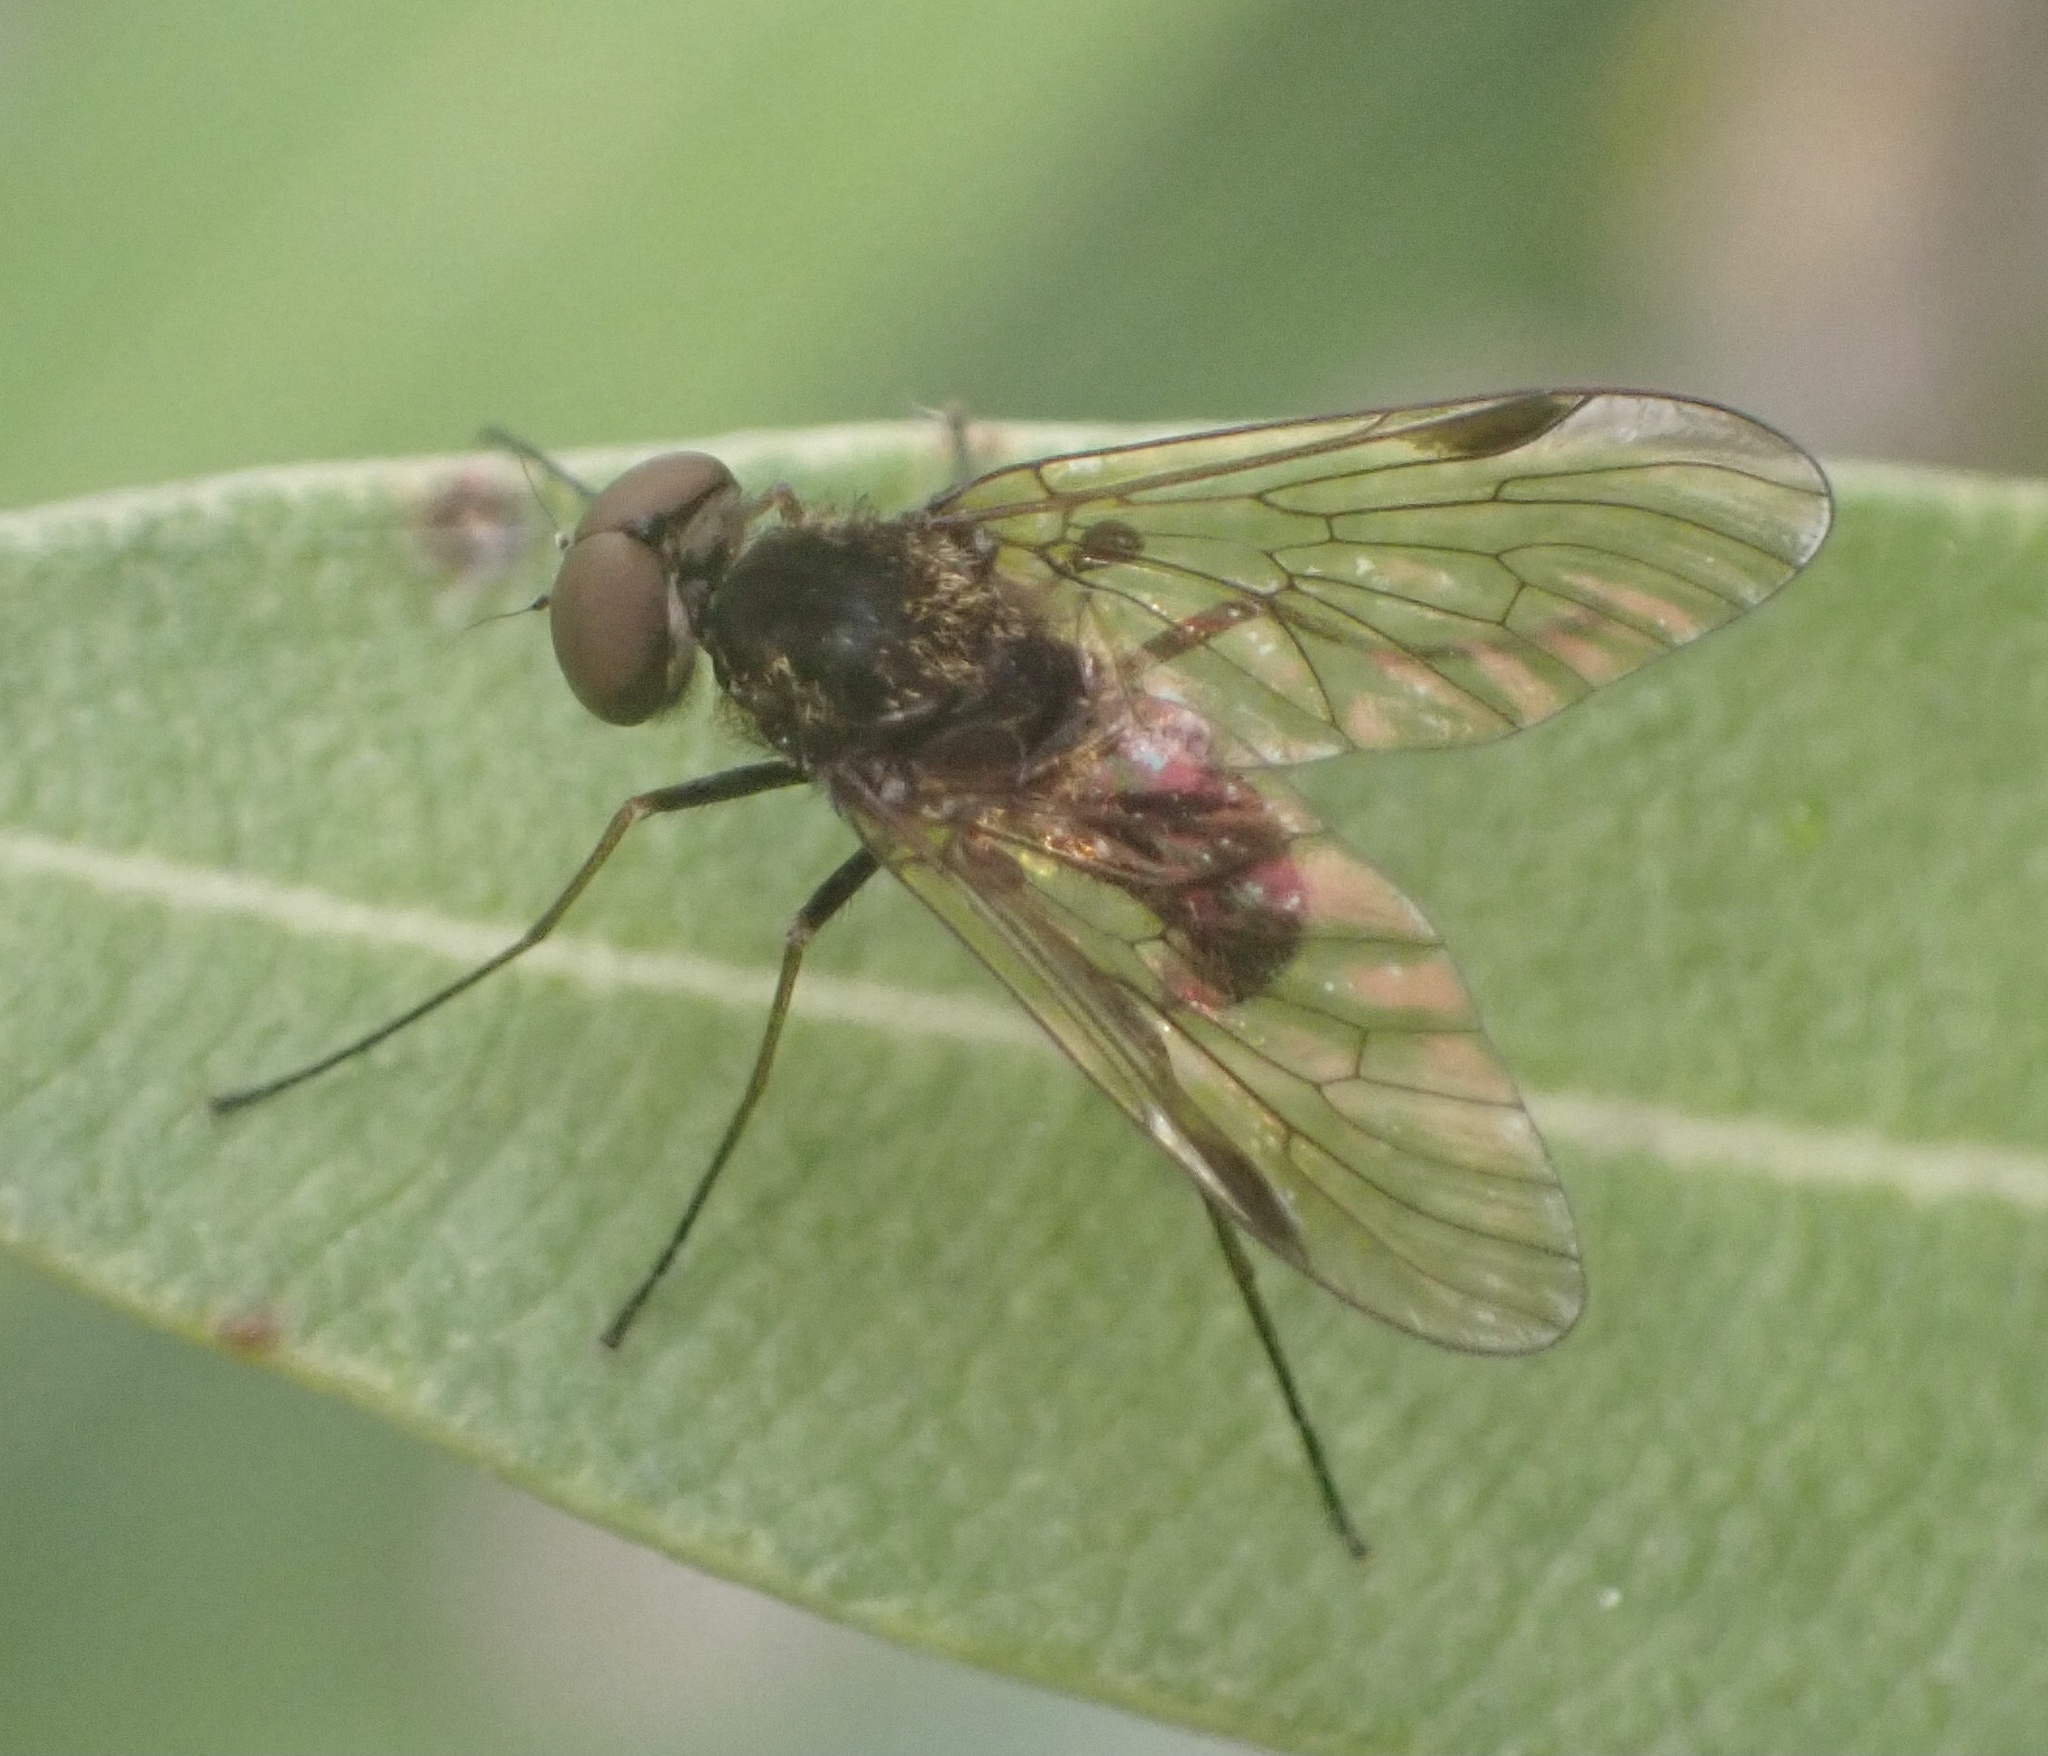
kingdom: Animalia
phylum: Arthropoda
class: Insecta
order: Diptera
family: Rhagionidae
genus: Chrysopilus
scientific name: Chrysopilus cristatus
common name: Black snipefly
